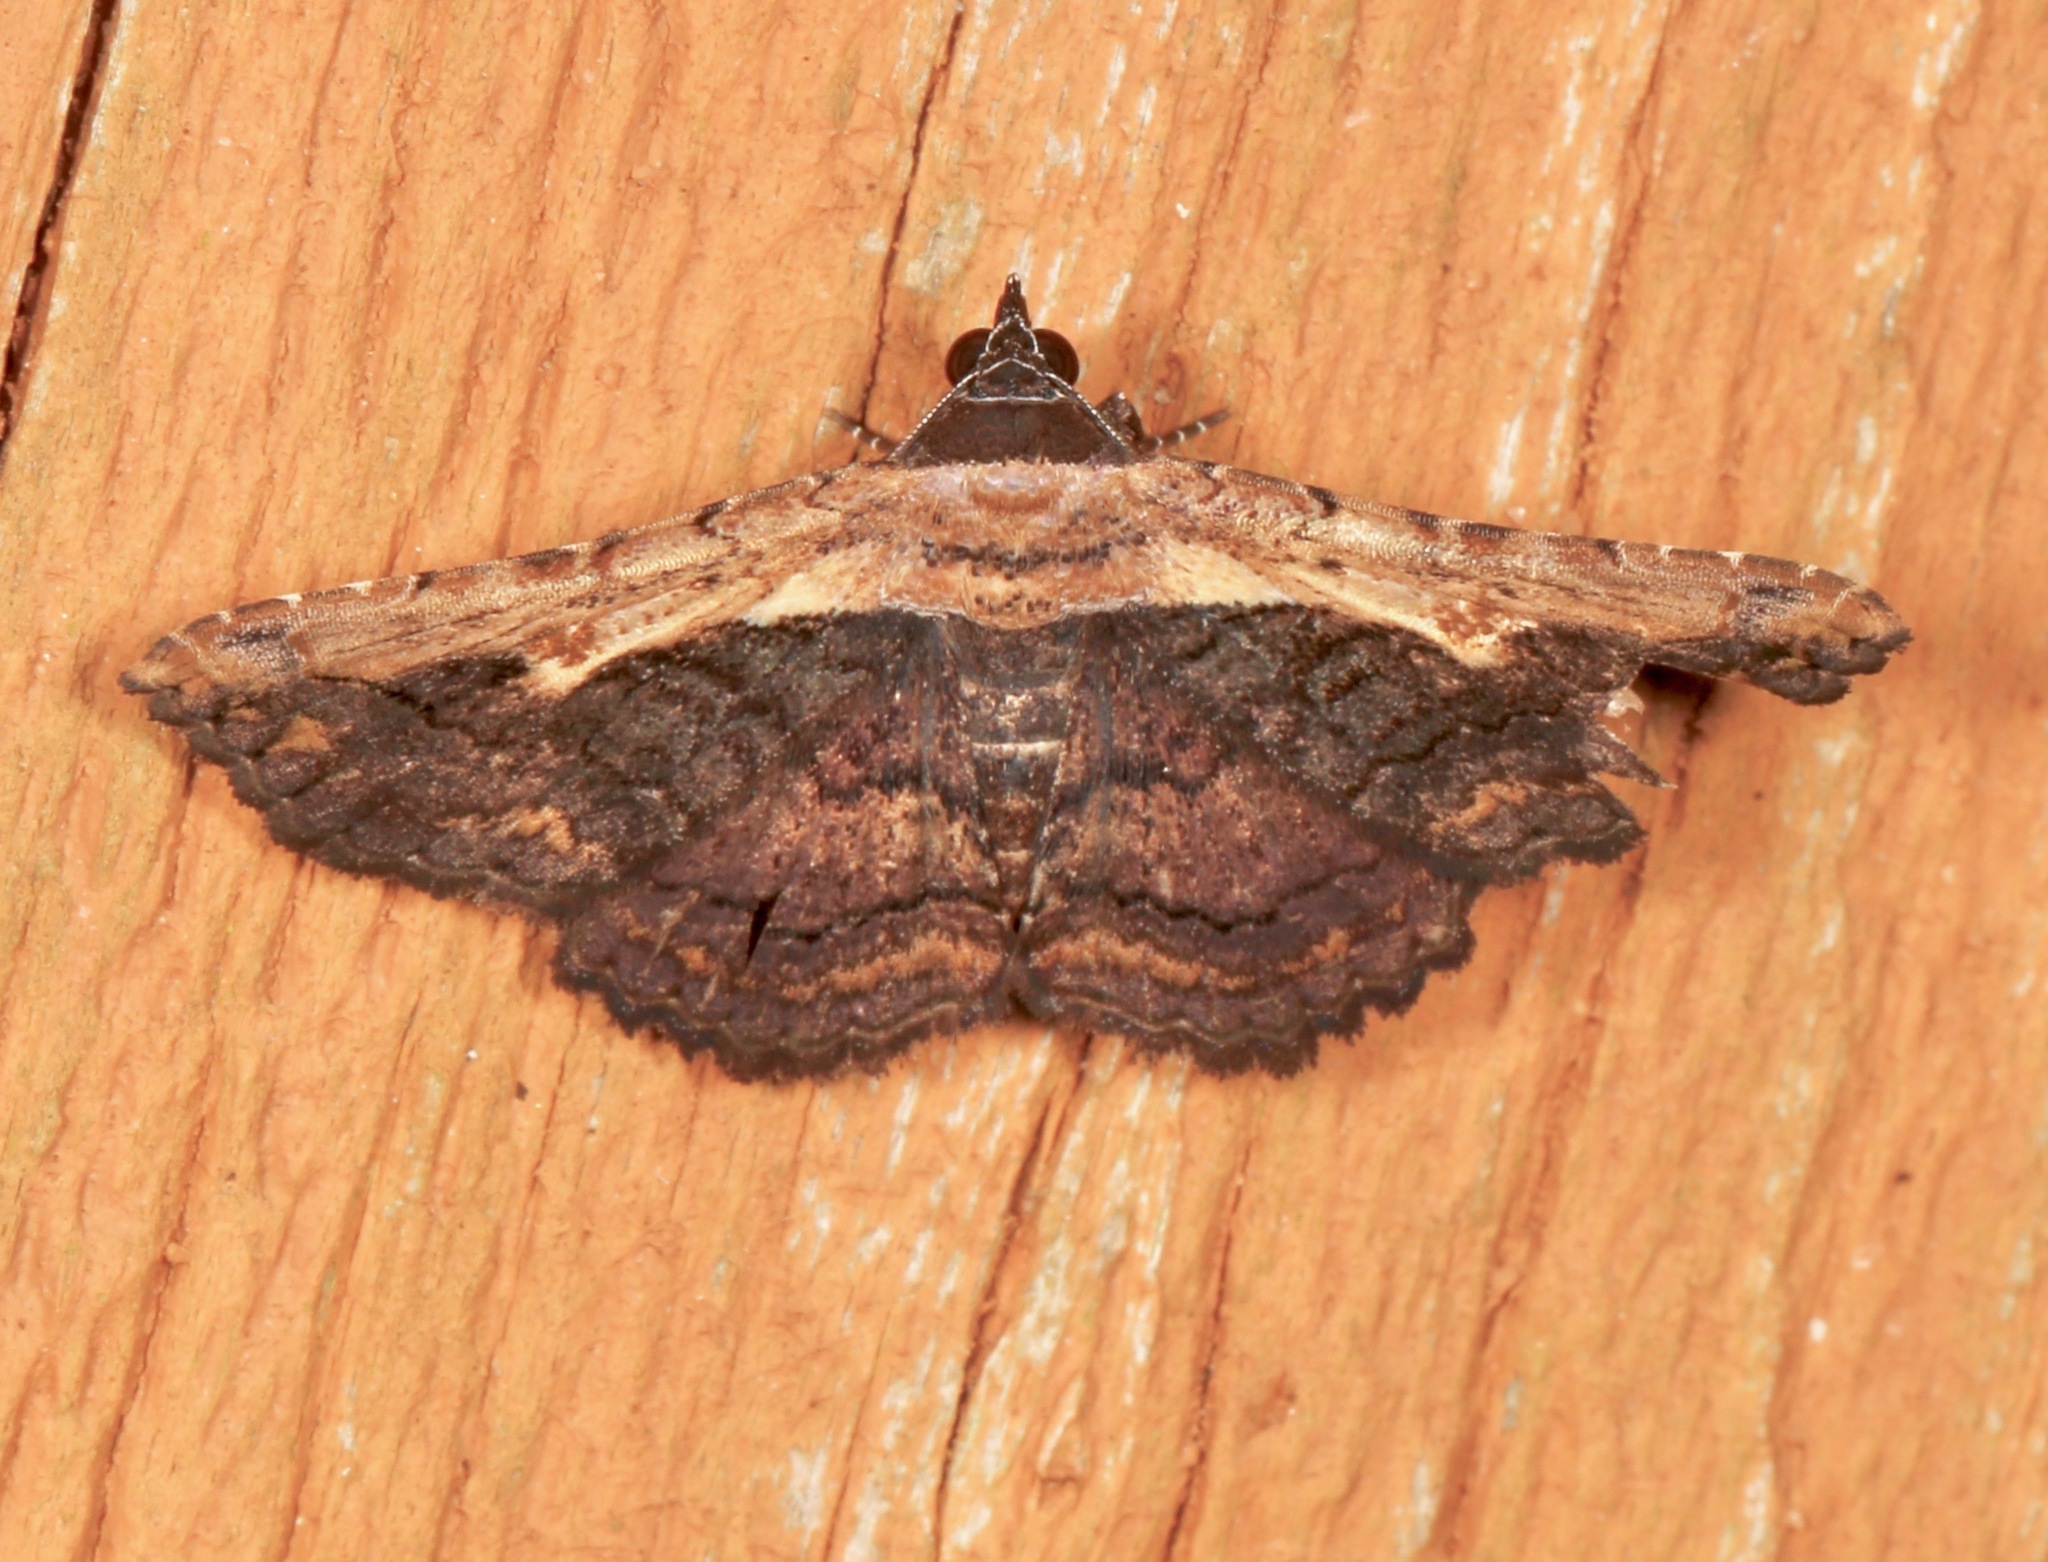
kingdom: Animalia
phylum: Arthropoda
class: Insecta
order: Lepidoptera
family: Erebidae
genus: Selenisa
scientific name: Selenisa sueroides
